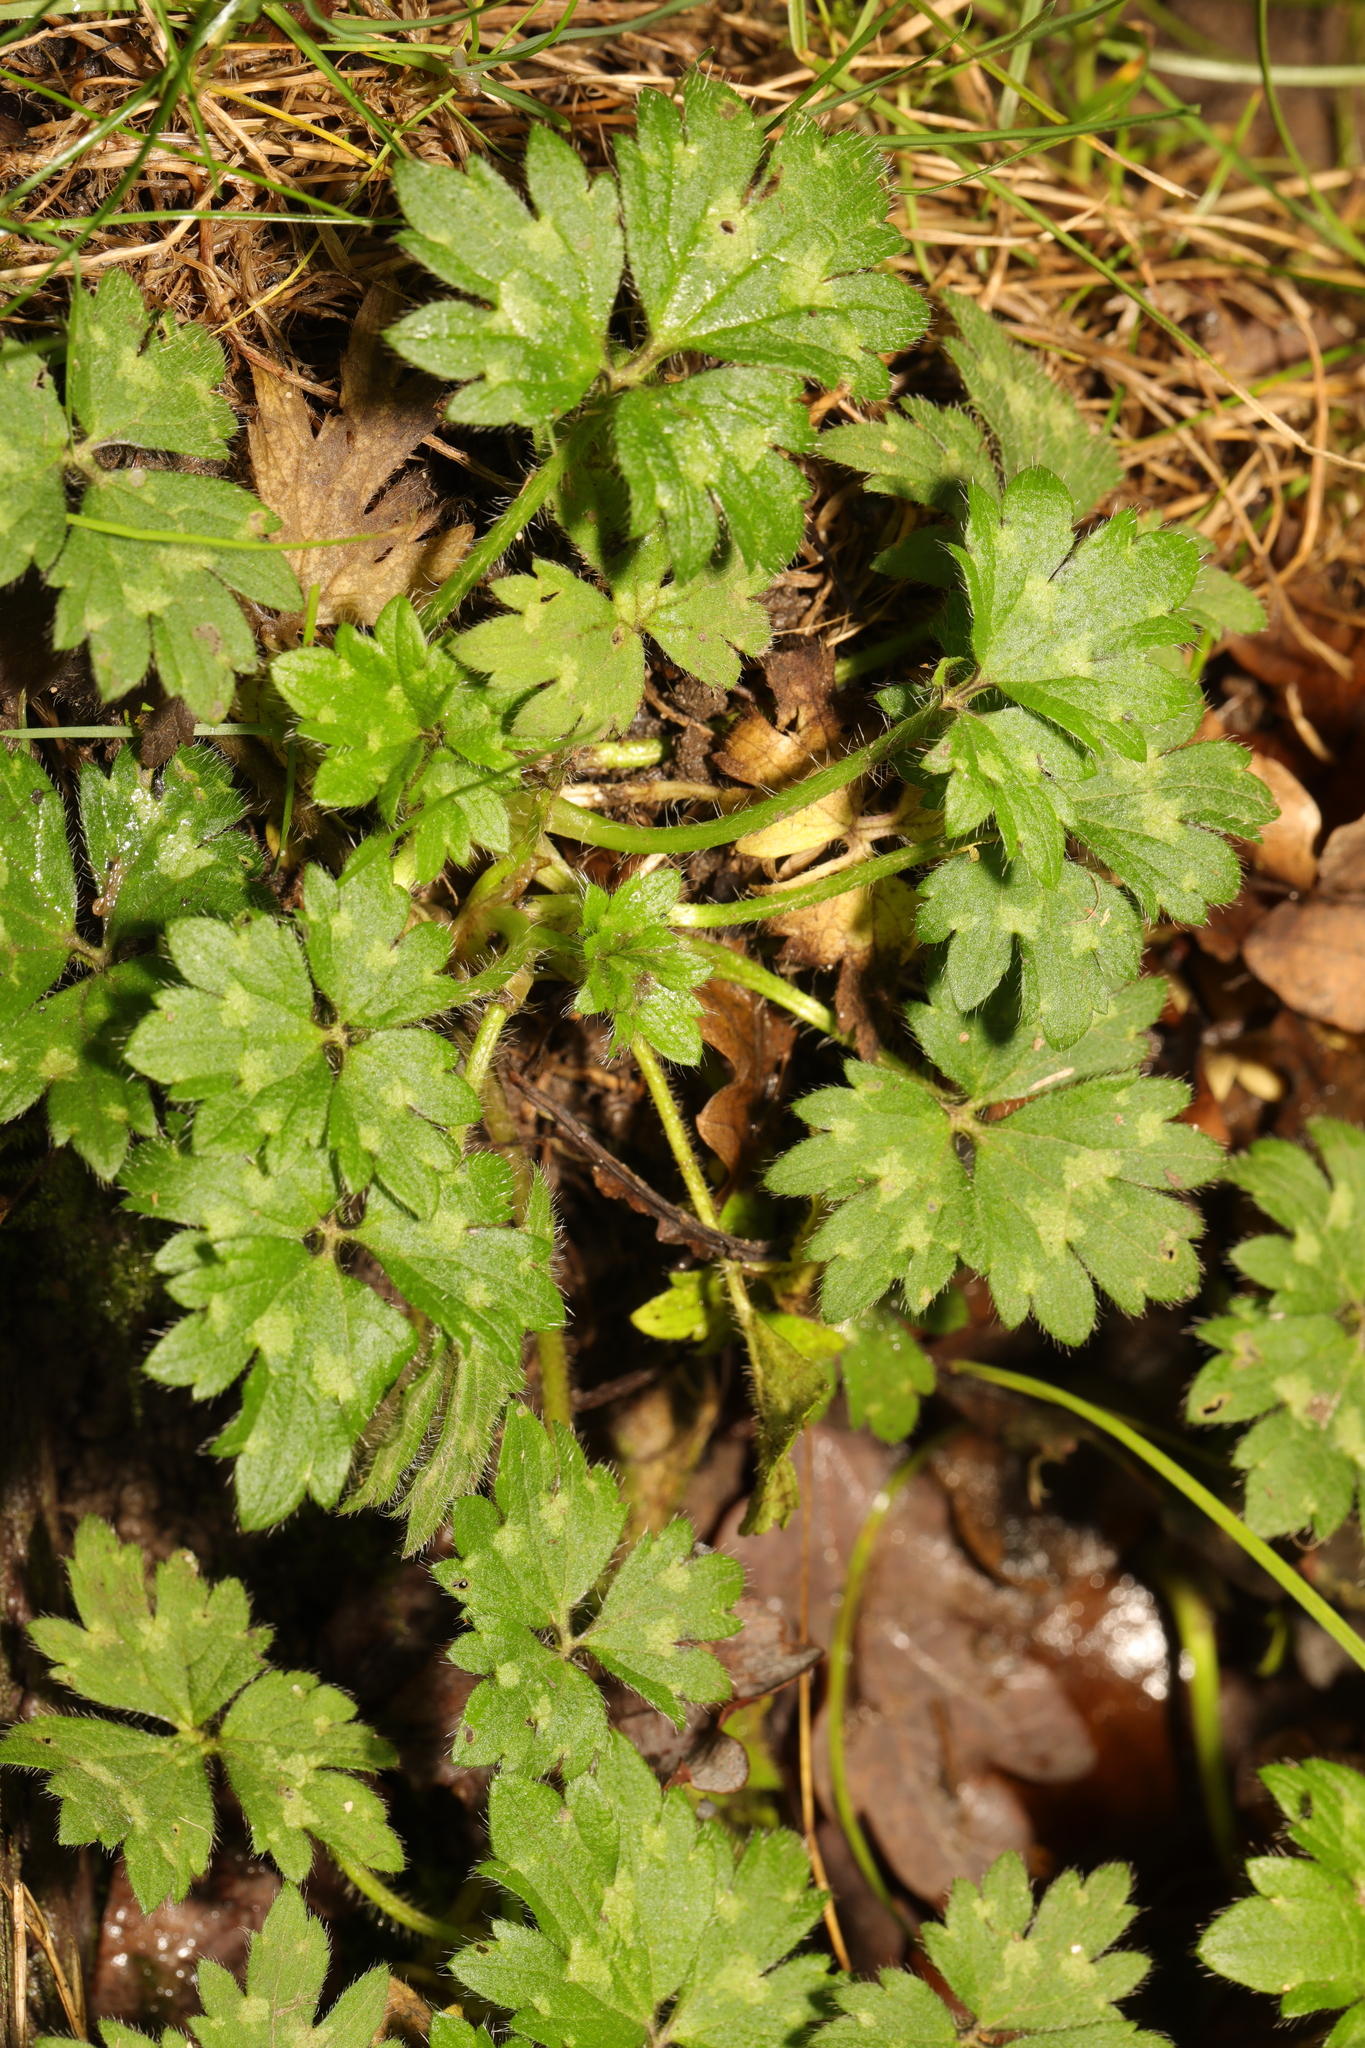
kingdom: Plantae
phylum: Tracheophyta
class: Magnoliopsida
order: Ranunculales
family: Ranunculaceae
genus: Ranunculus
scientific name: Ranunculus repens
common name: Creeping buttercup
